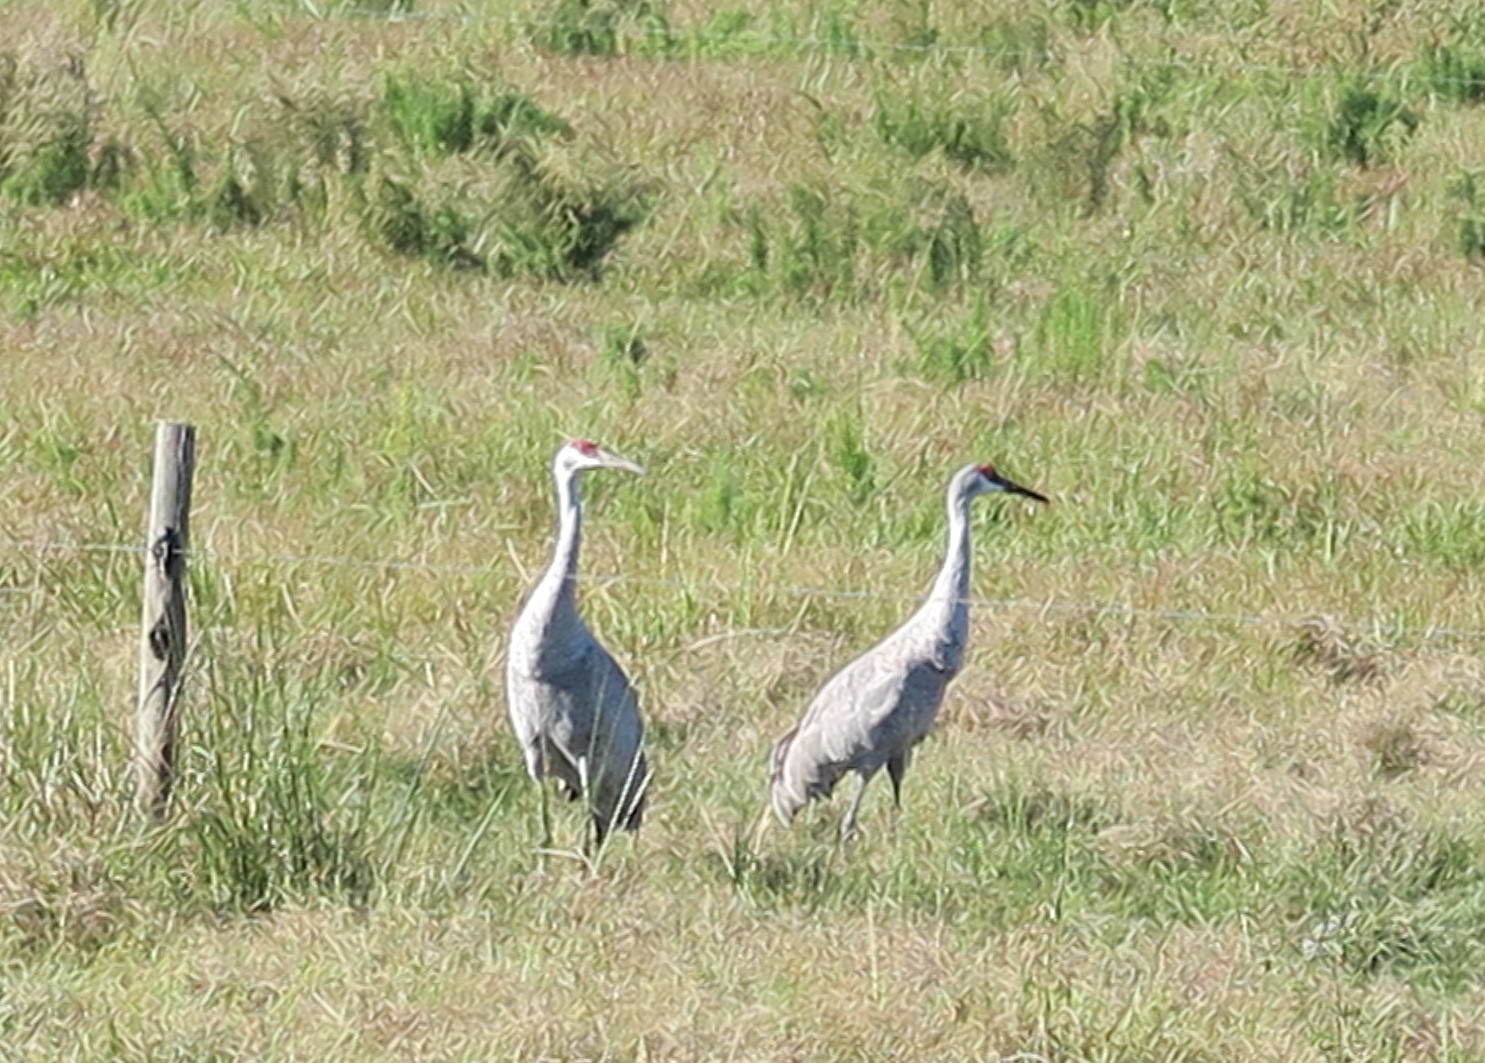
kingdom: Animalia
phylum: Chordata
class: Aves
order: Gruiformes
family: Gruidae
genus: Grus
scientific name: Grus canadensis
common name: Sandhill crane
